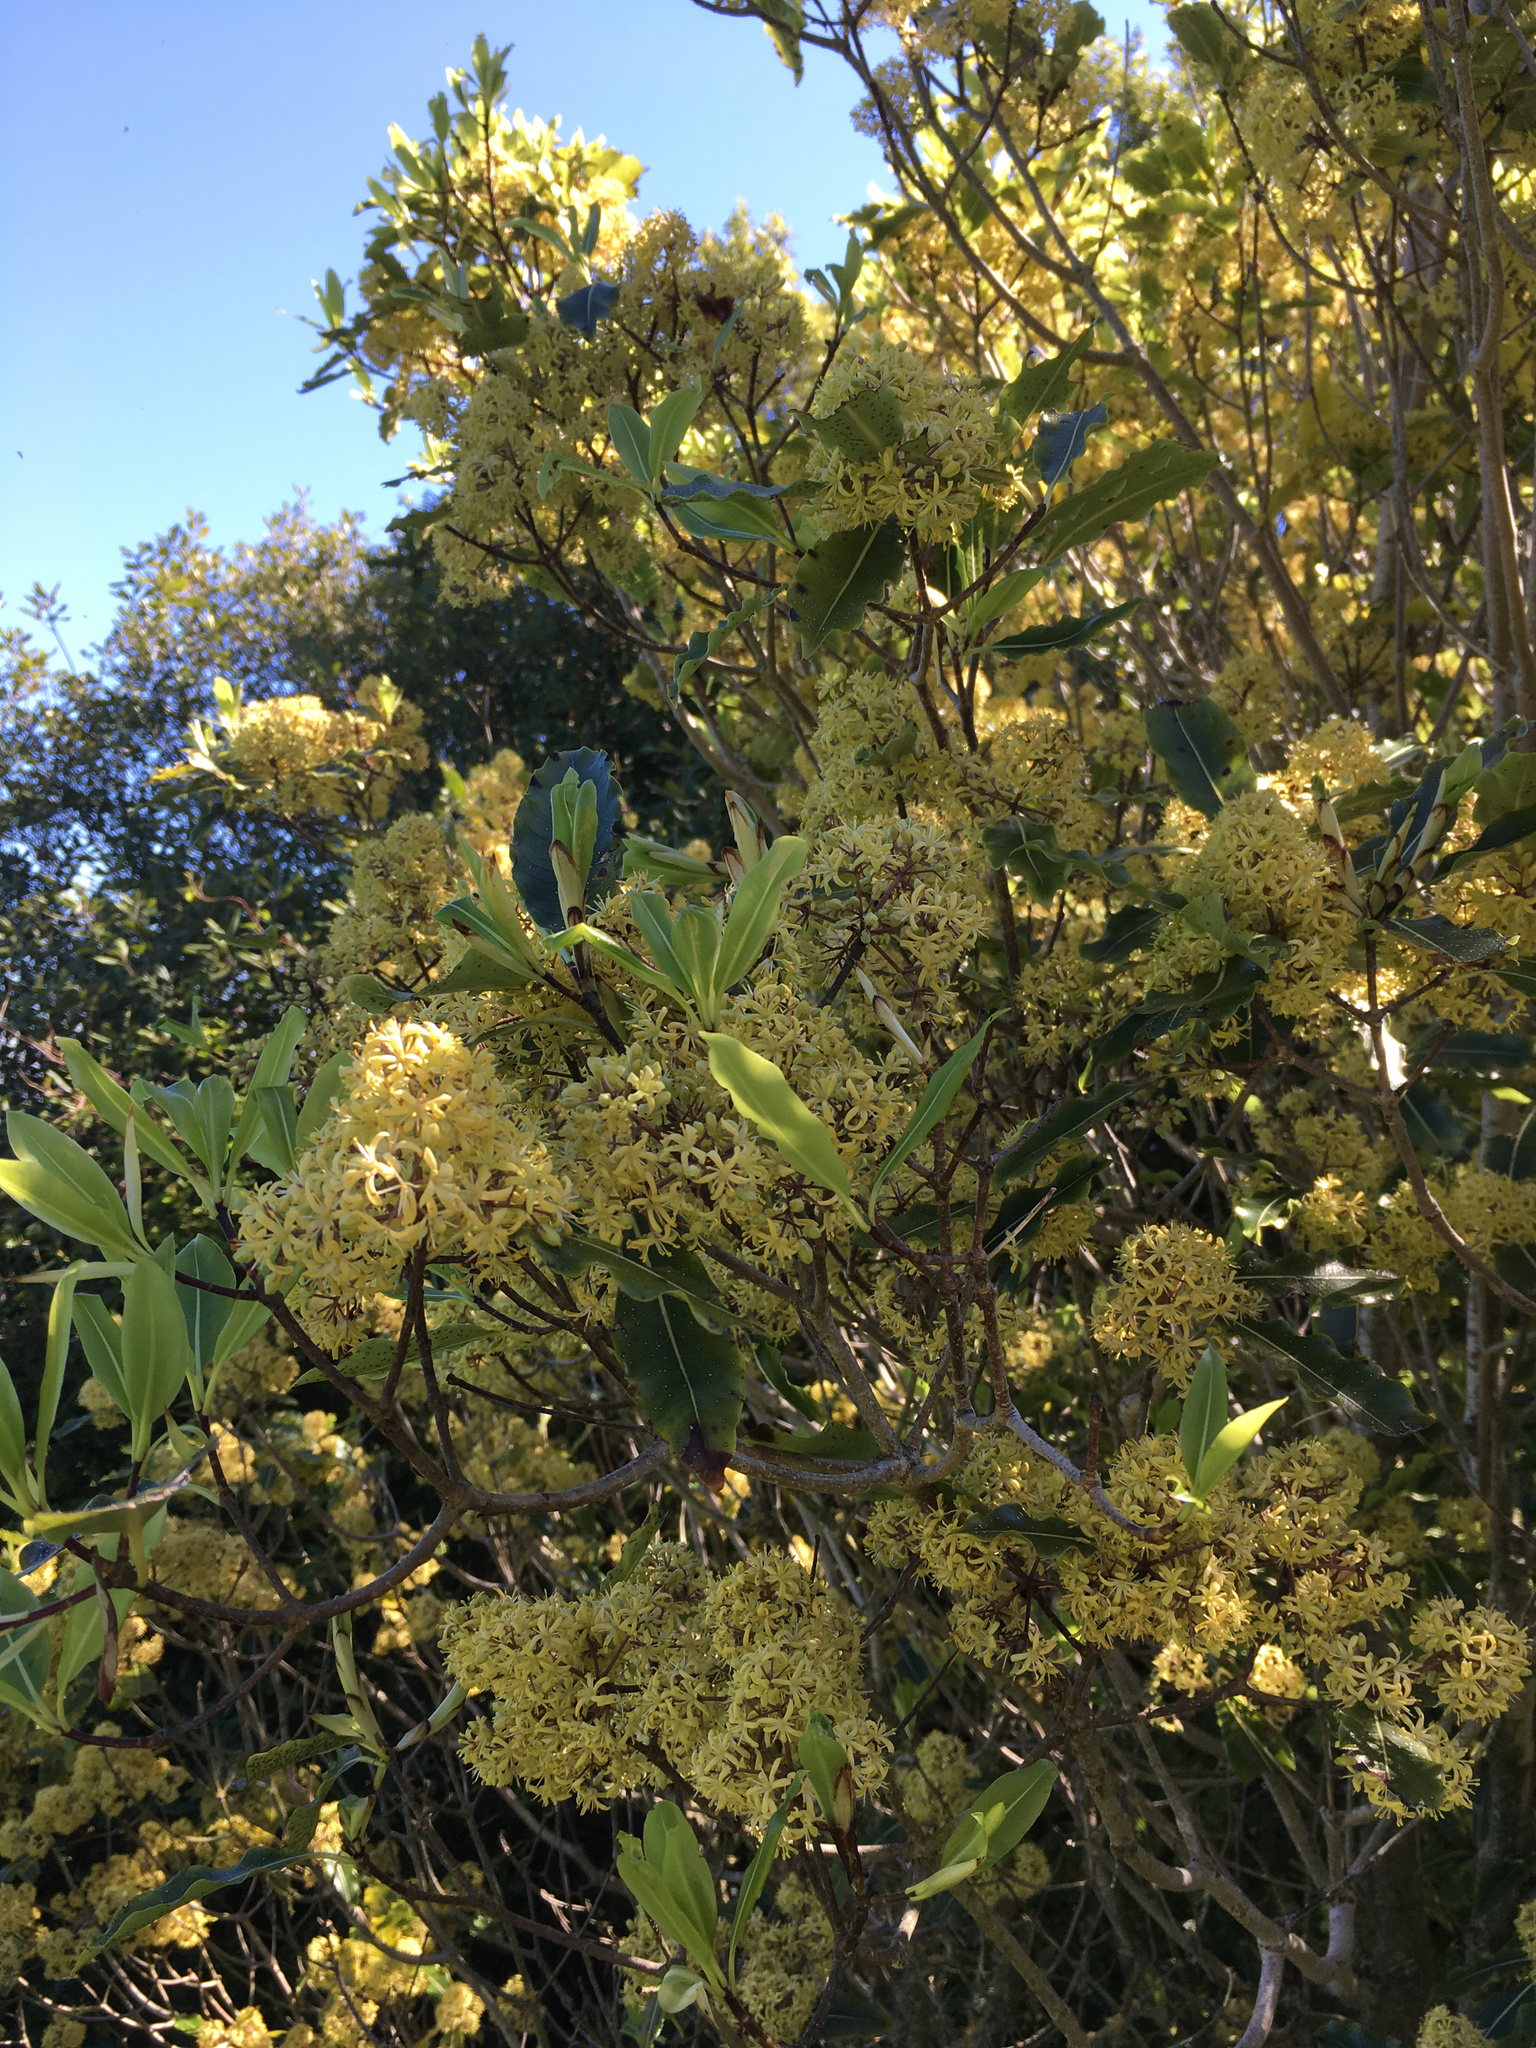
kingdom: Plantae
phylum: Tracheophyta
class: Magnoliopsida
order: Apiales
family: Pittosporaceae
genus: Pittosporum
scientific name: Pittosporum eugenioides
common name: Lemonwood
